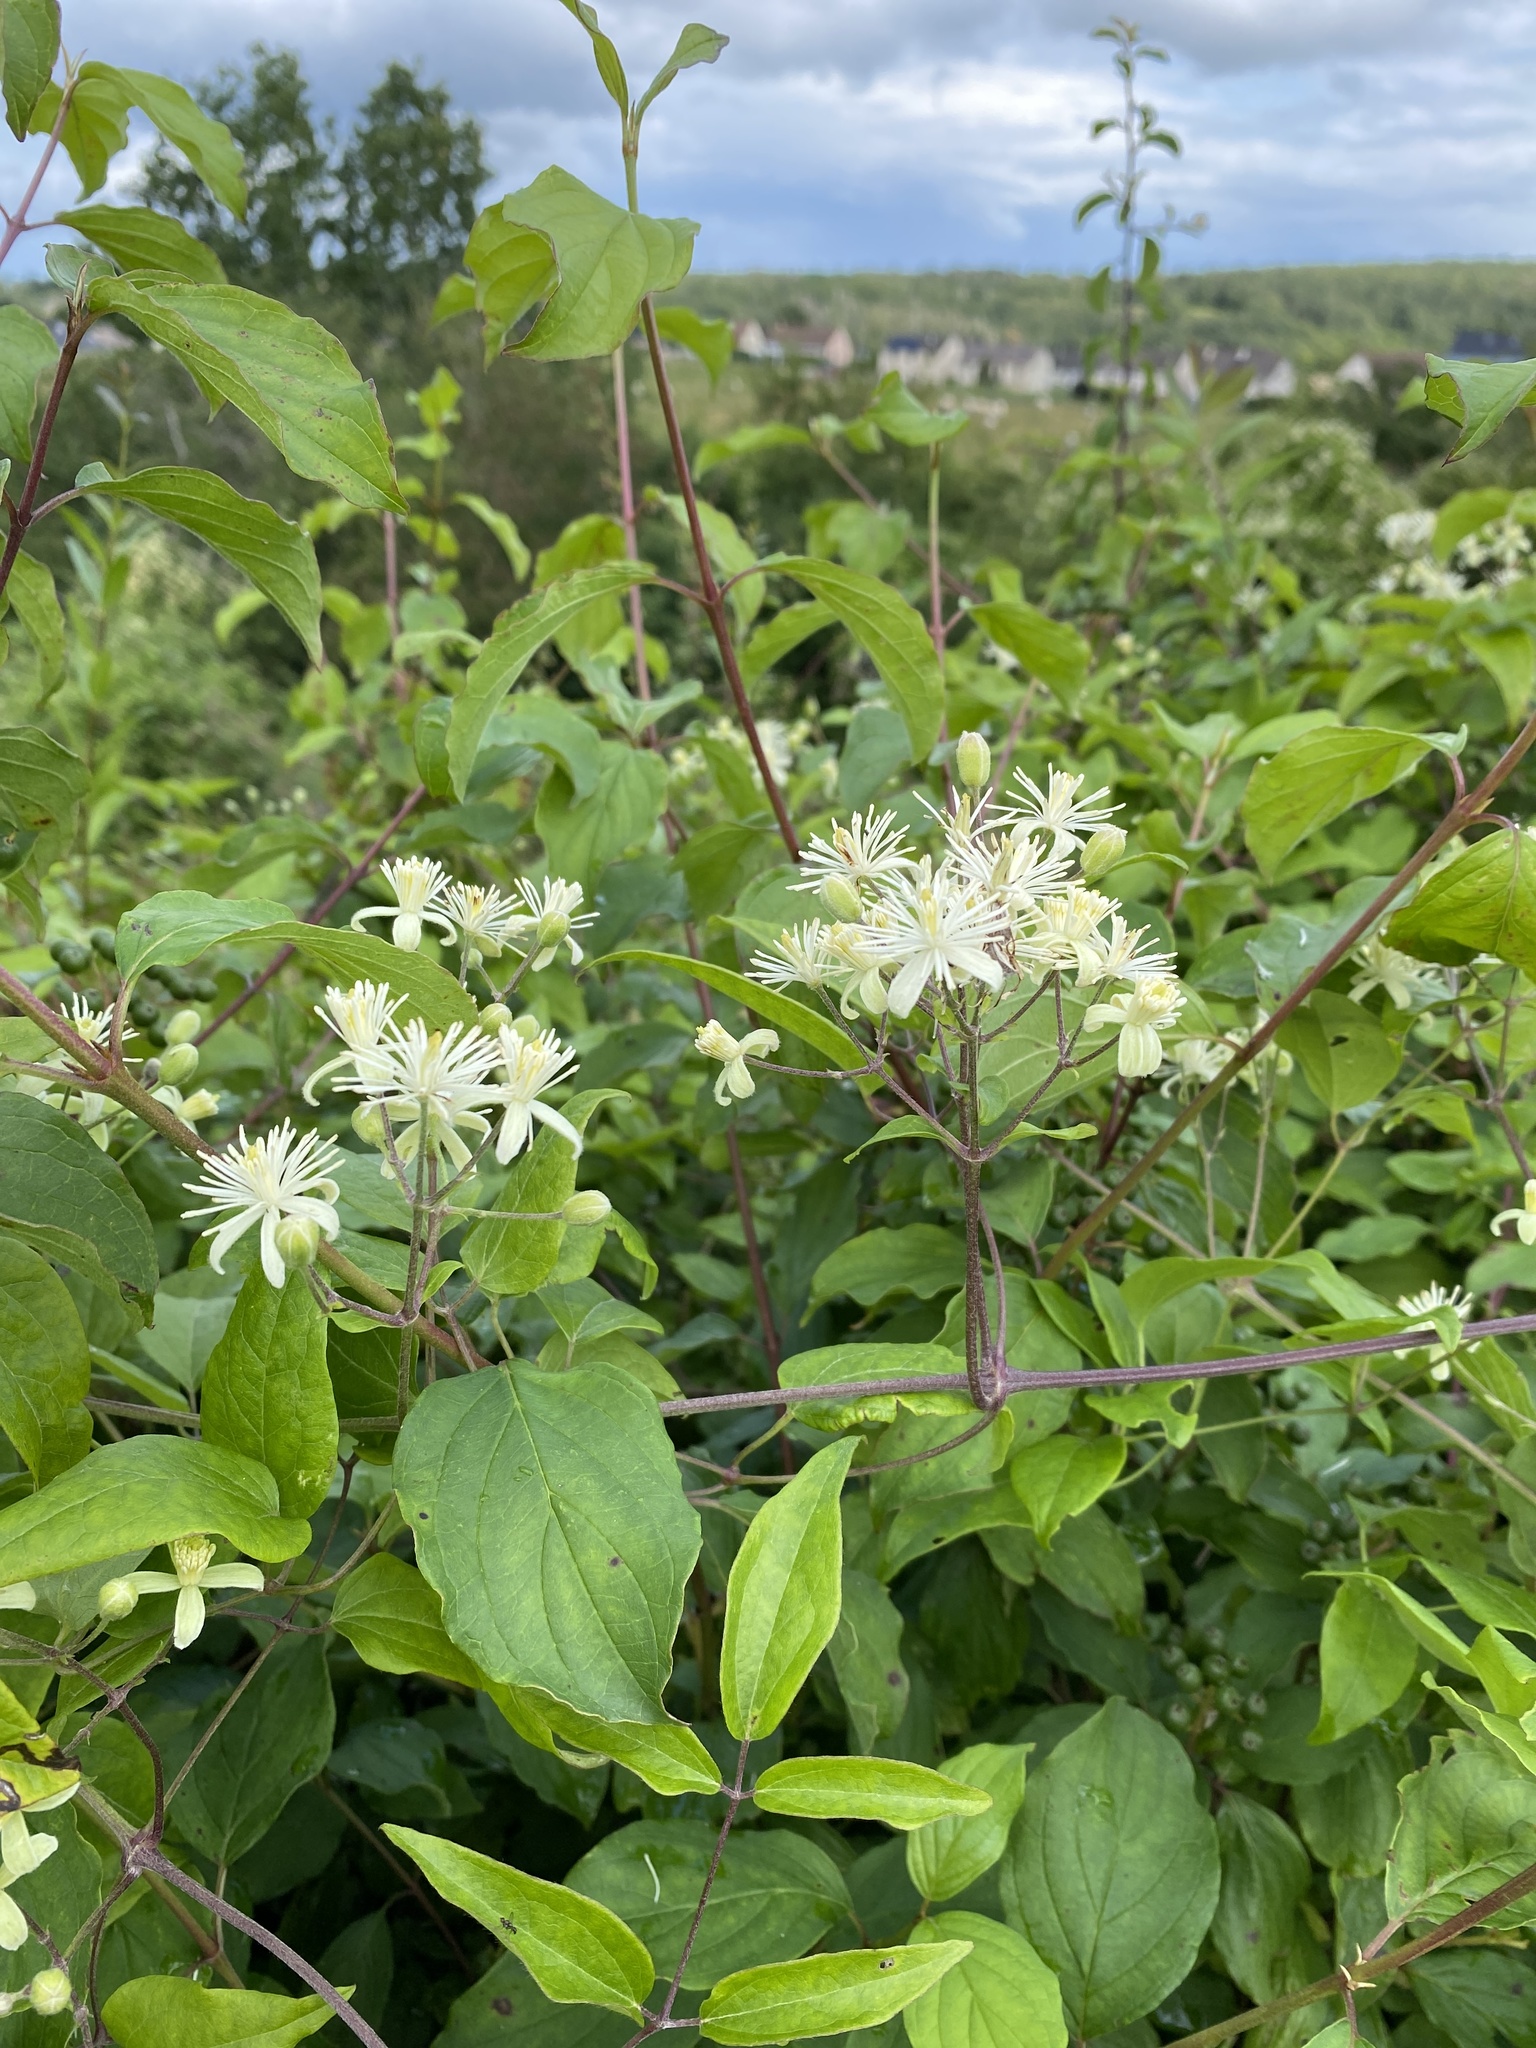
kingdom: Plantae
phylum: Tracheophyta
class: Magnoliopsida
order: Ranunculales
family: Ranunculaceae
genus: Clematis
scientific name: Clematis vitalba
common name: Evergreen clematis
